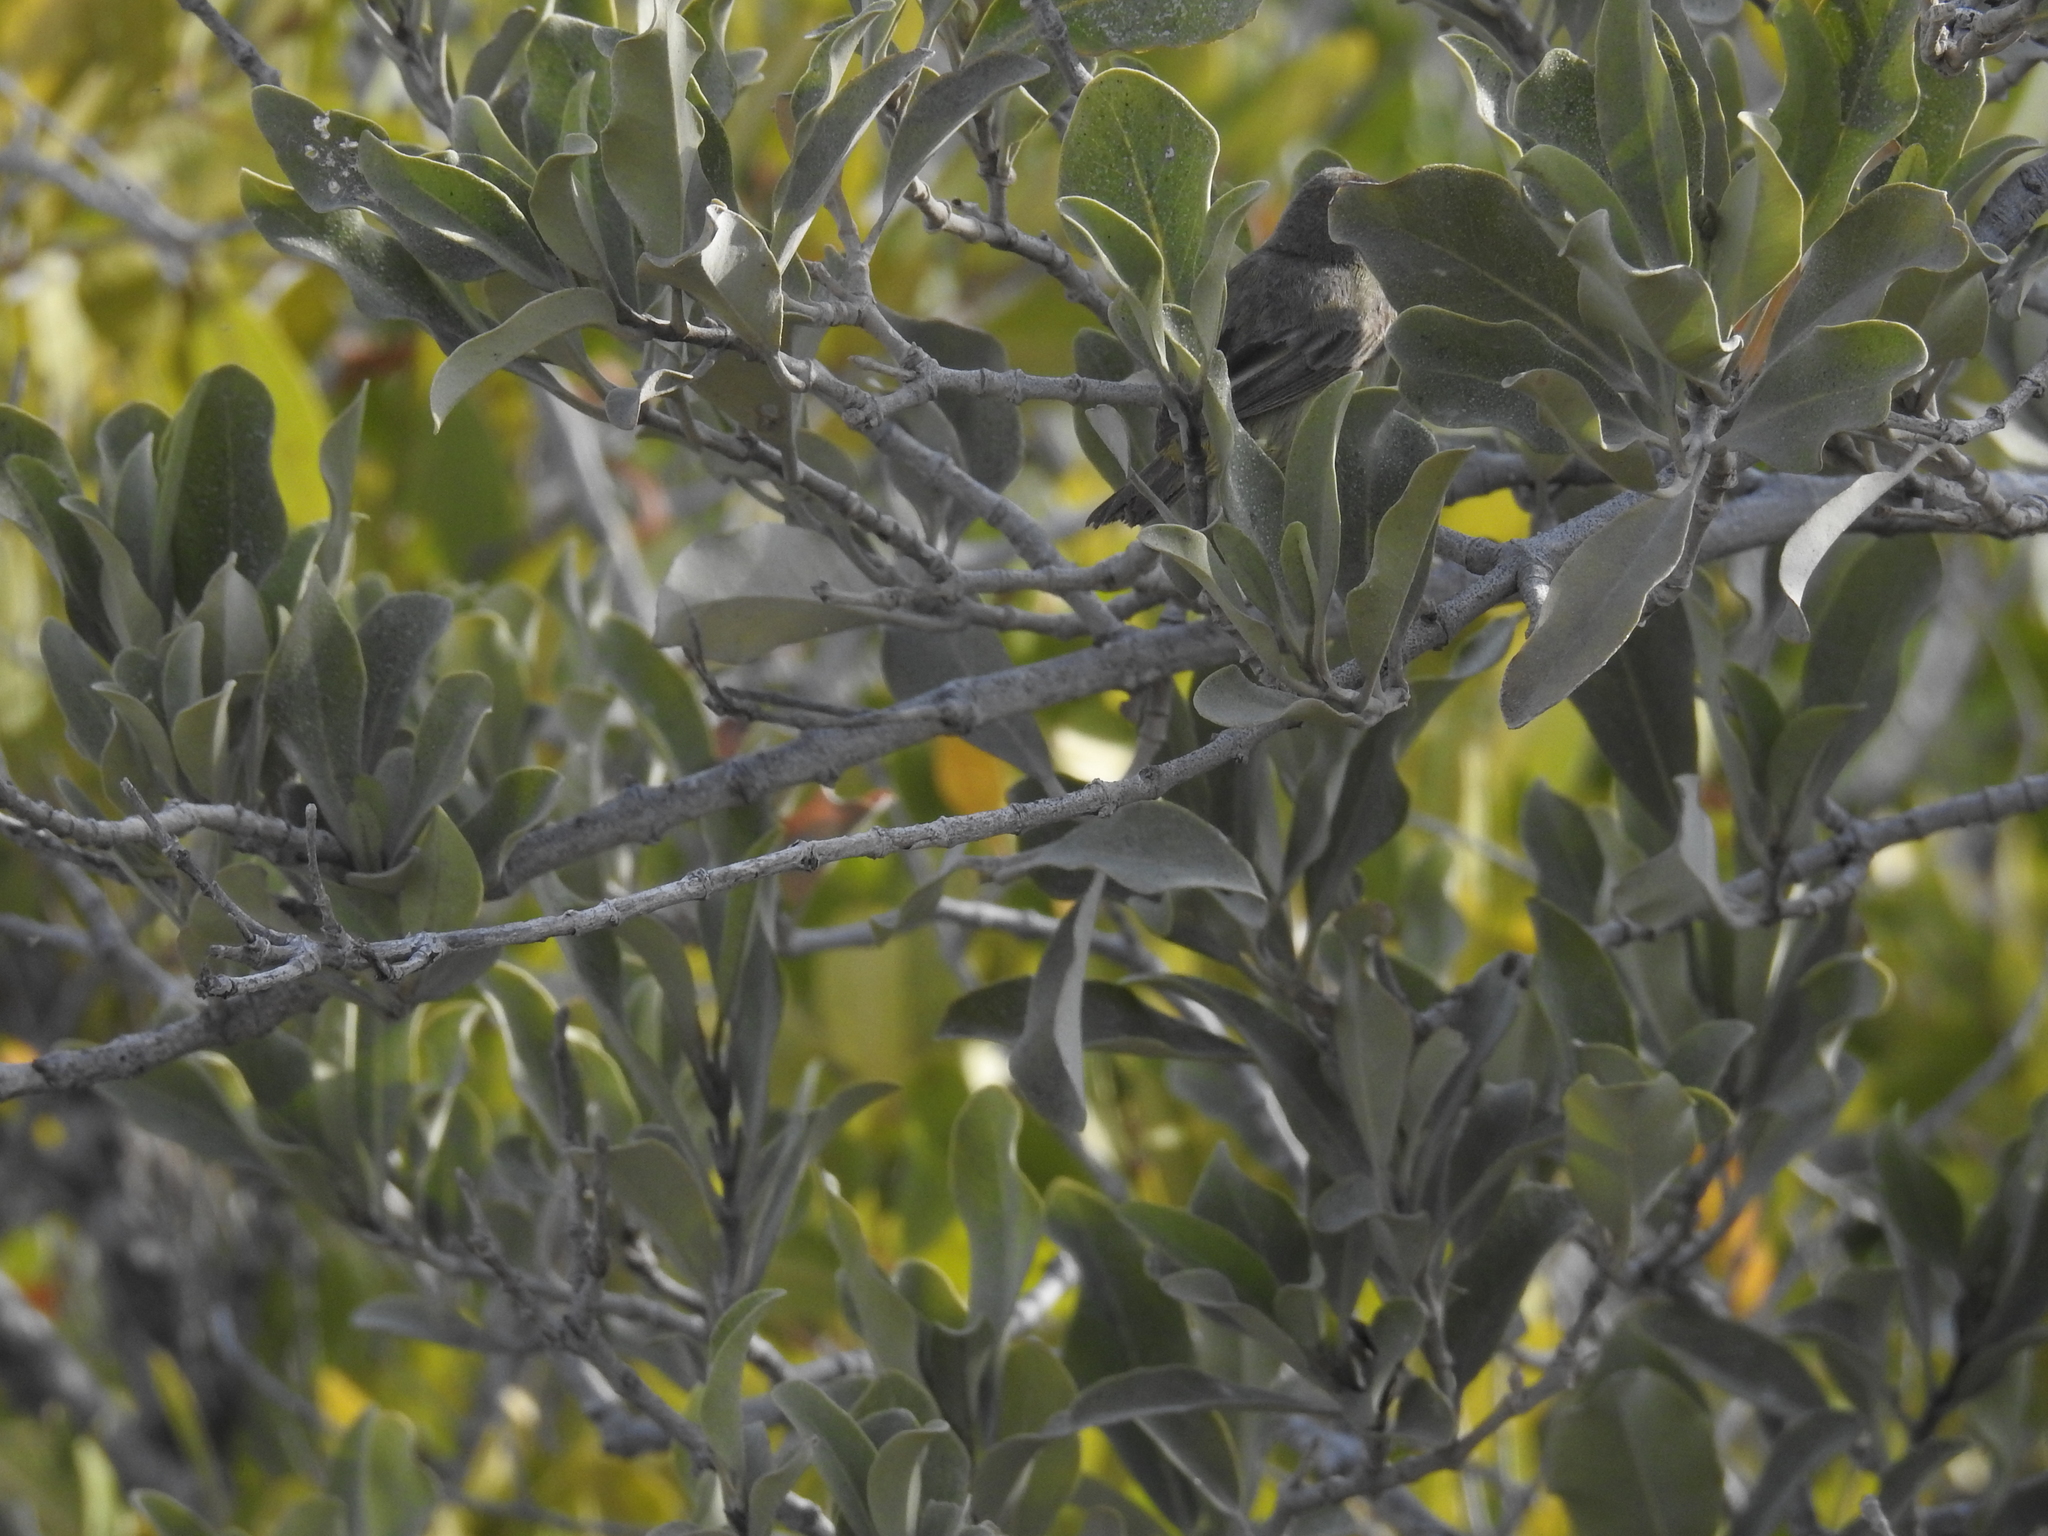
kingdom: Plantae
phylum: Tracheophyta
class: Magnoliopsida
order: Lamiales
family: Acanthaceae
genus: Avicennia
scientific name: Avicennia germinans
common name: Black mangrove
